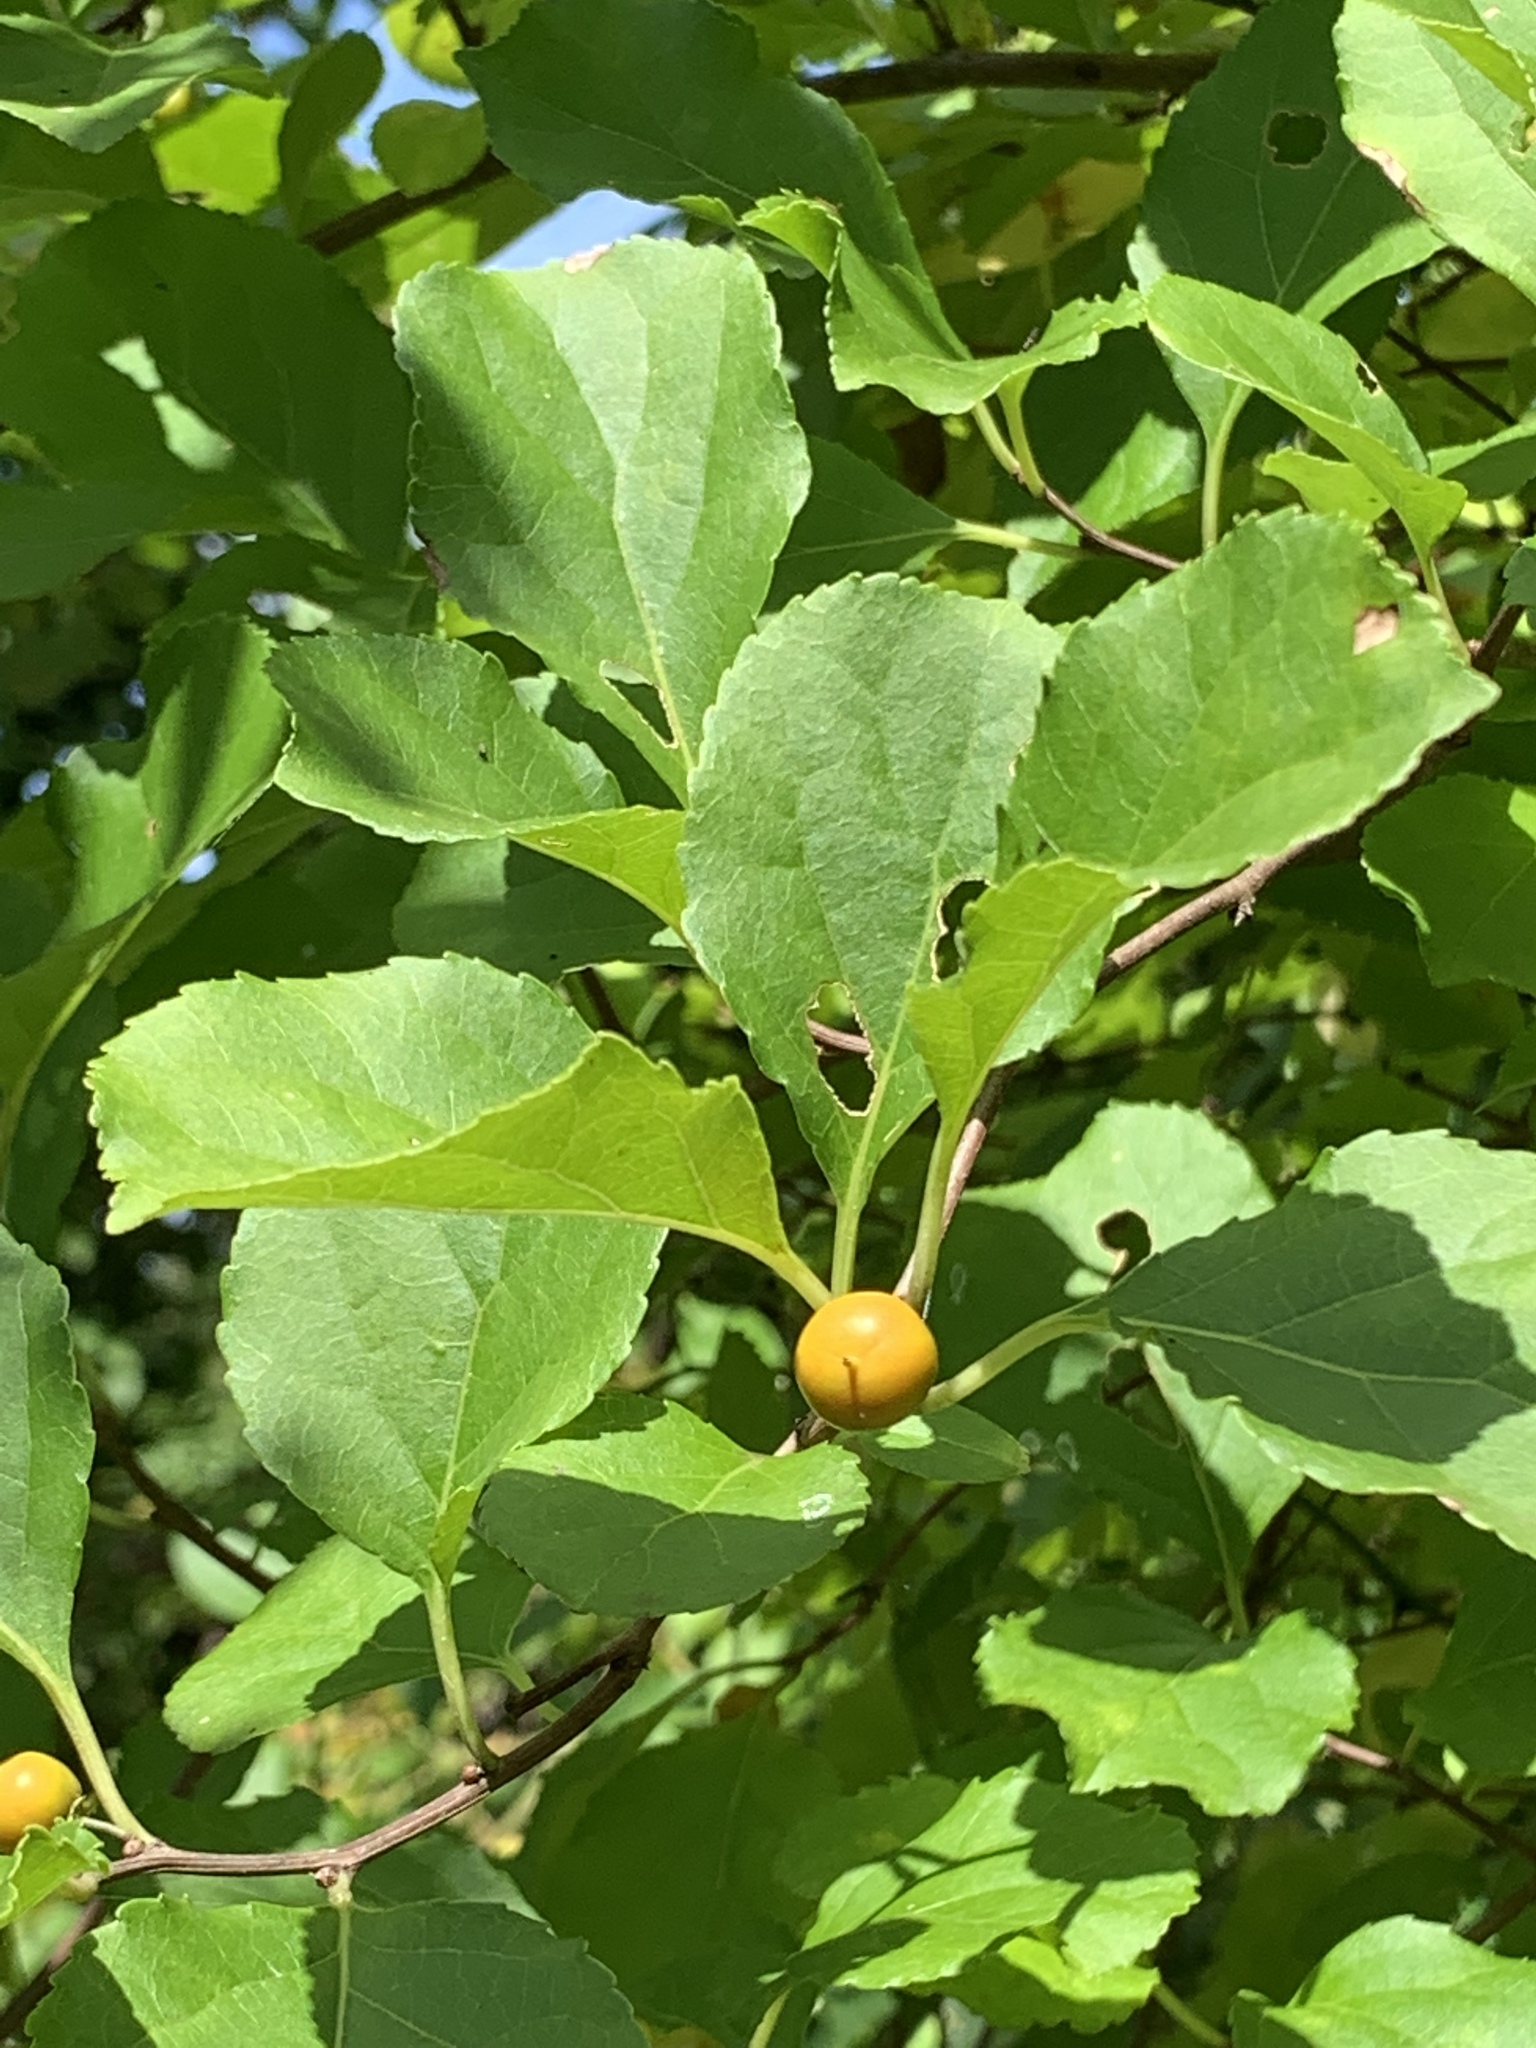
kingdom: Plantae
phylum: Tracheophyta
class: Magnoliopsida
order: Celastrales
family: Celastraceae
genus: Celastrus
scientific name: Celastrus orbiculatus
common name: Oriental bittersweet
